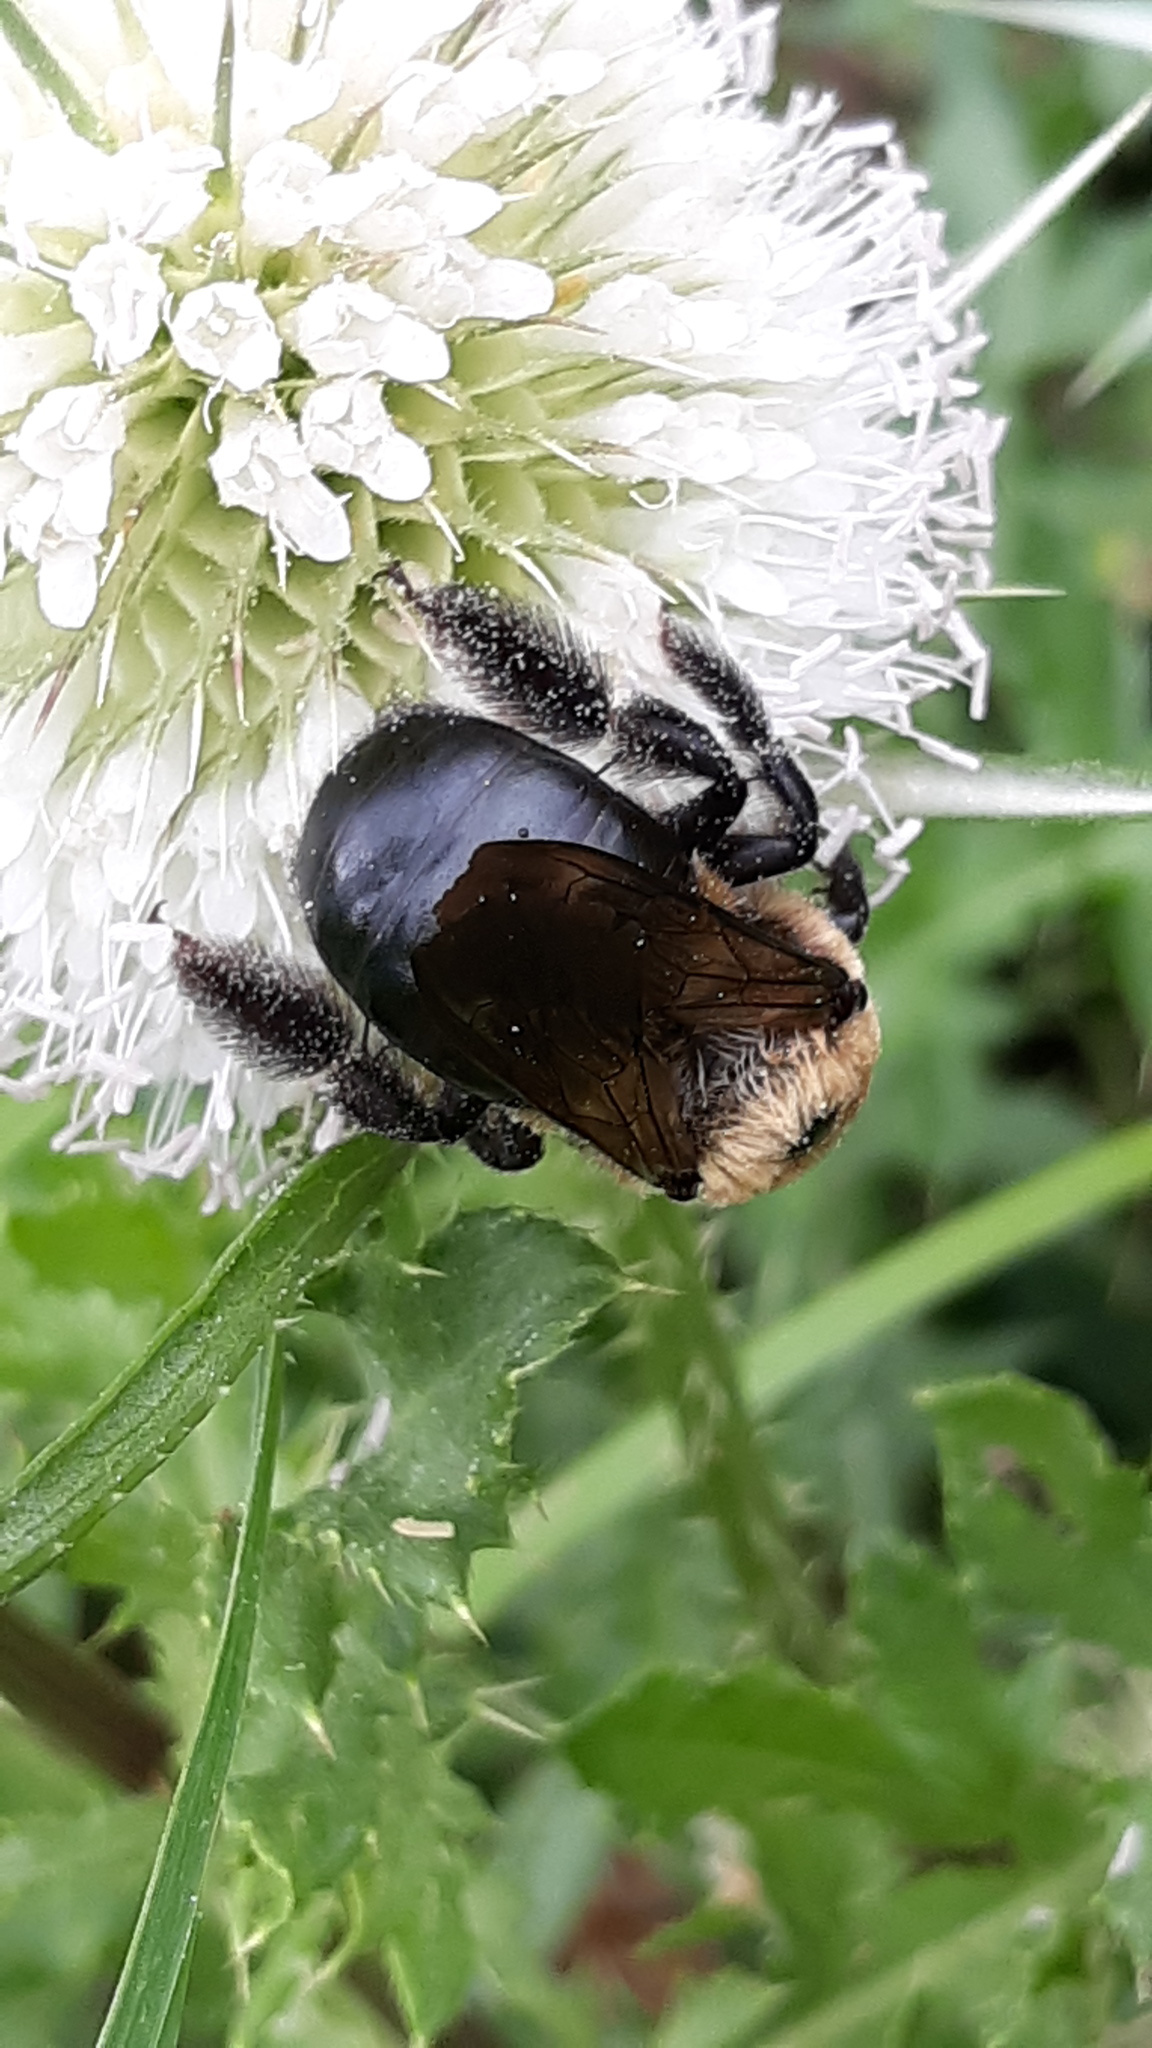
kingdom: Animalia
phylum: Arthropoda
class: Insecta
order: Hymenoptera
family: Apidae
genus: Xylocopa
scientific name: Xylocopa virginica
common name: Carpenter bee
